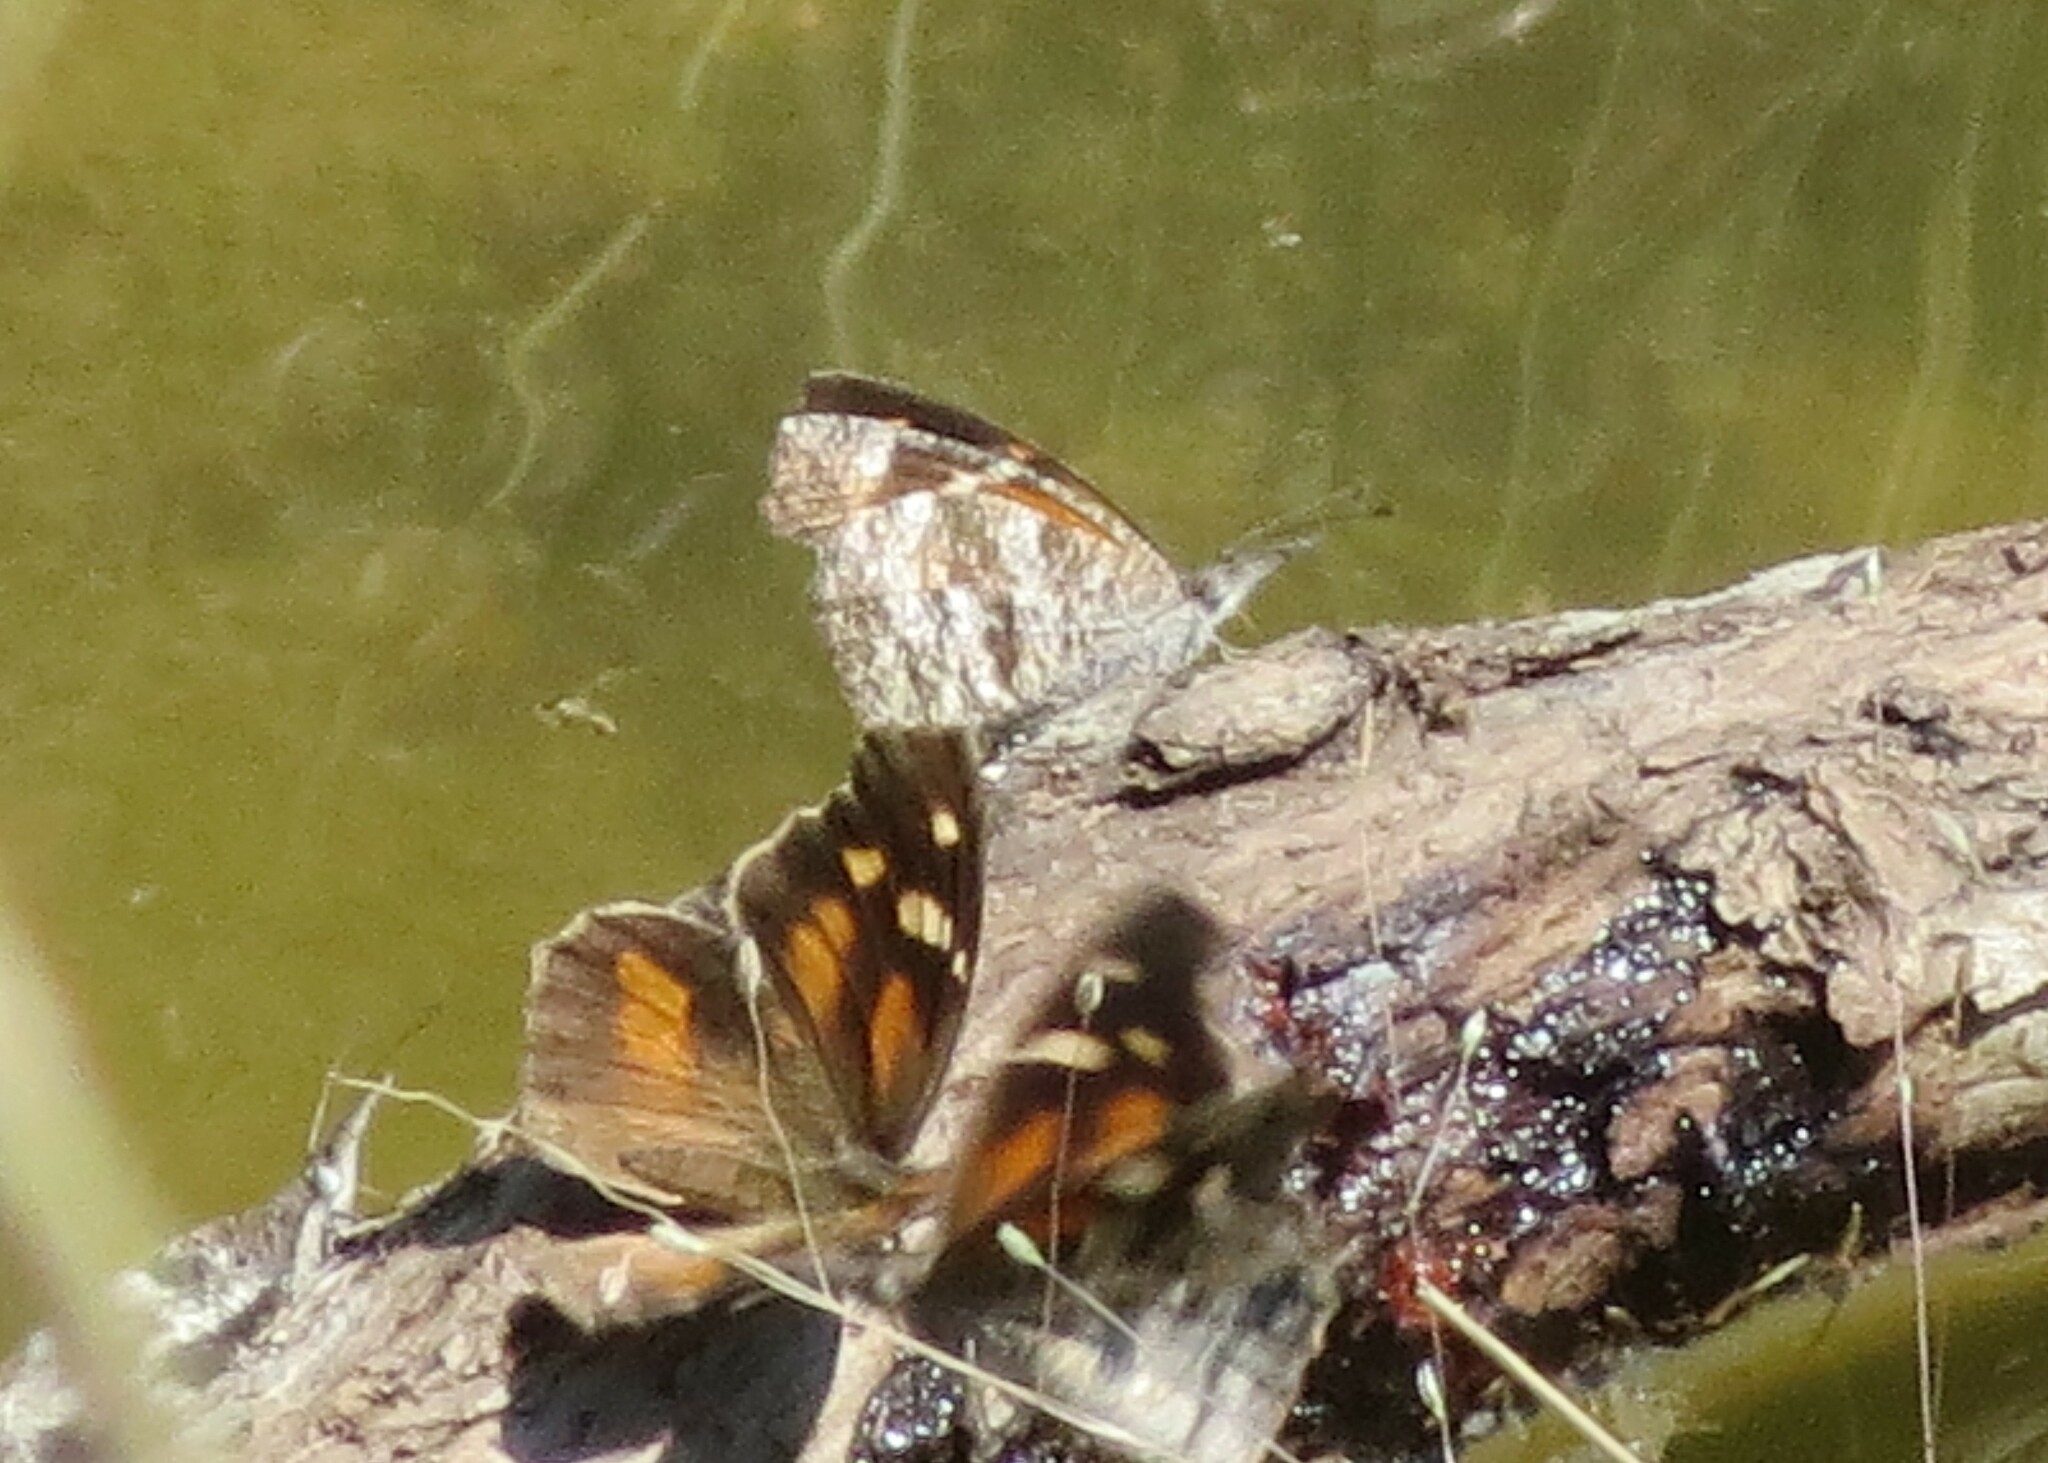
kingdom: Animalia
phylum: Arthropoda
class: Insecta
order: Lepidoptera
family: Nymphalidae
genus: Libytheana
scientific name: Libytheana carinenta
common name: American snout
